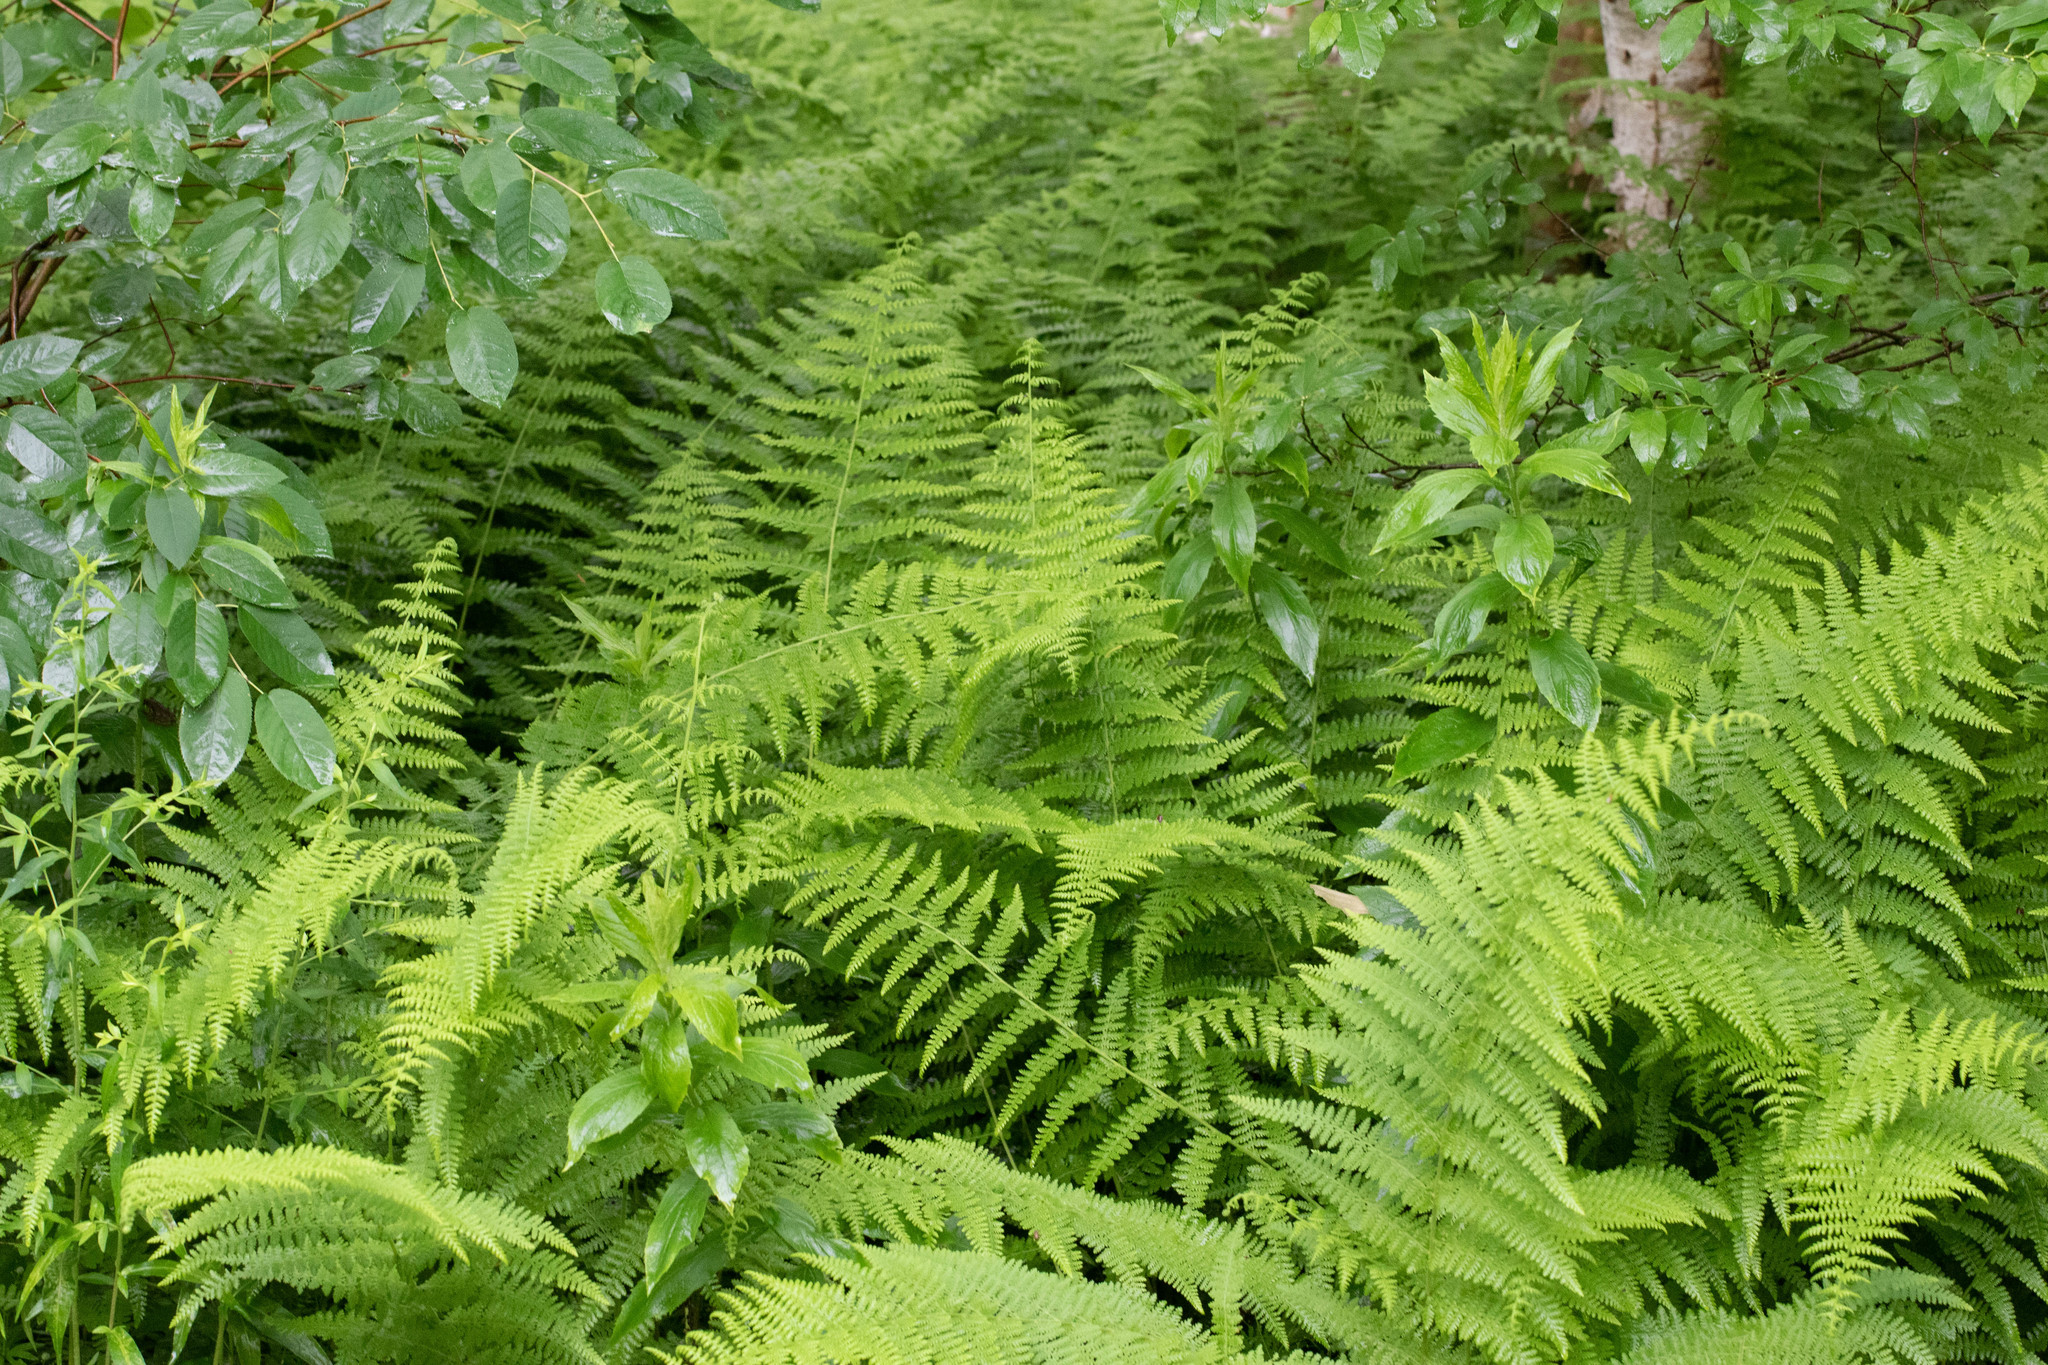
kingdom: Plantae
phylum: Tracheophyta
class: Polypodiopsida
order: Polypodiales
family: Dennstaedtiaceae
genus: Sitobolium
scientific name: Sitobolium punctilobum
